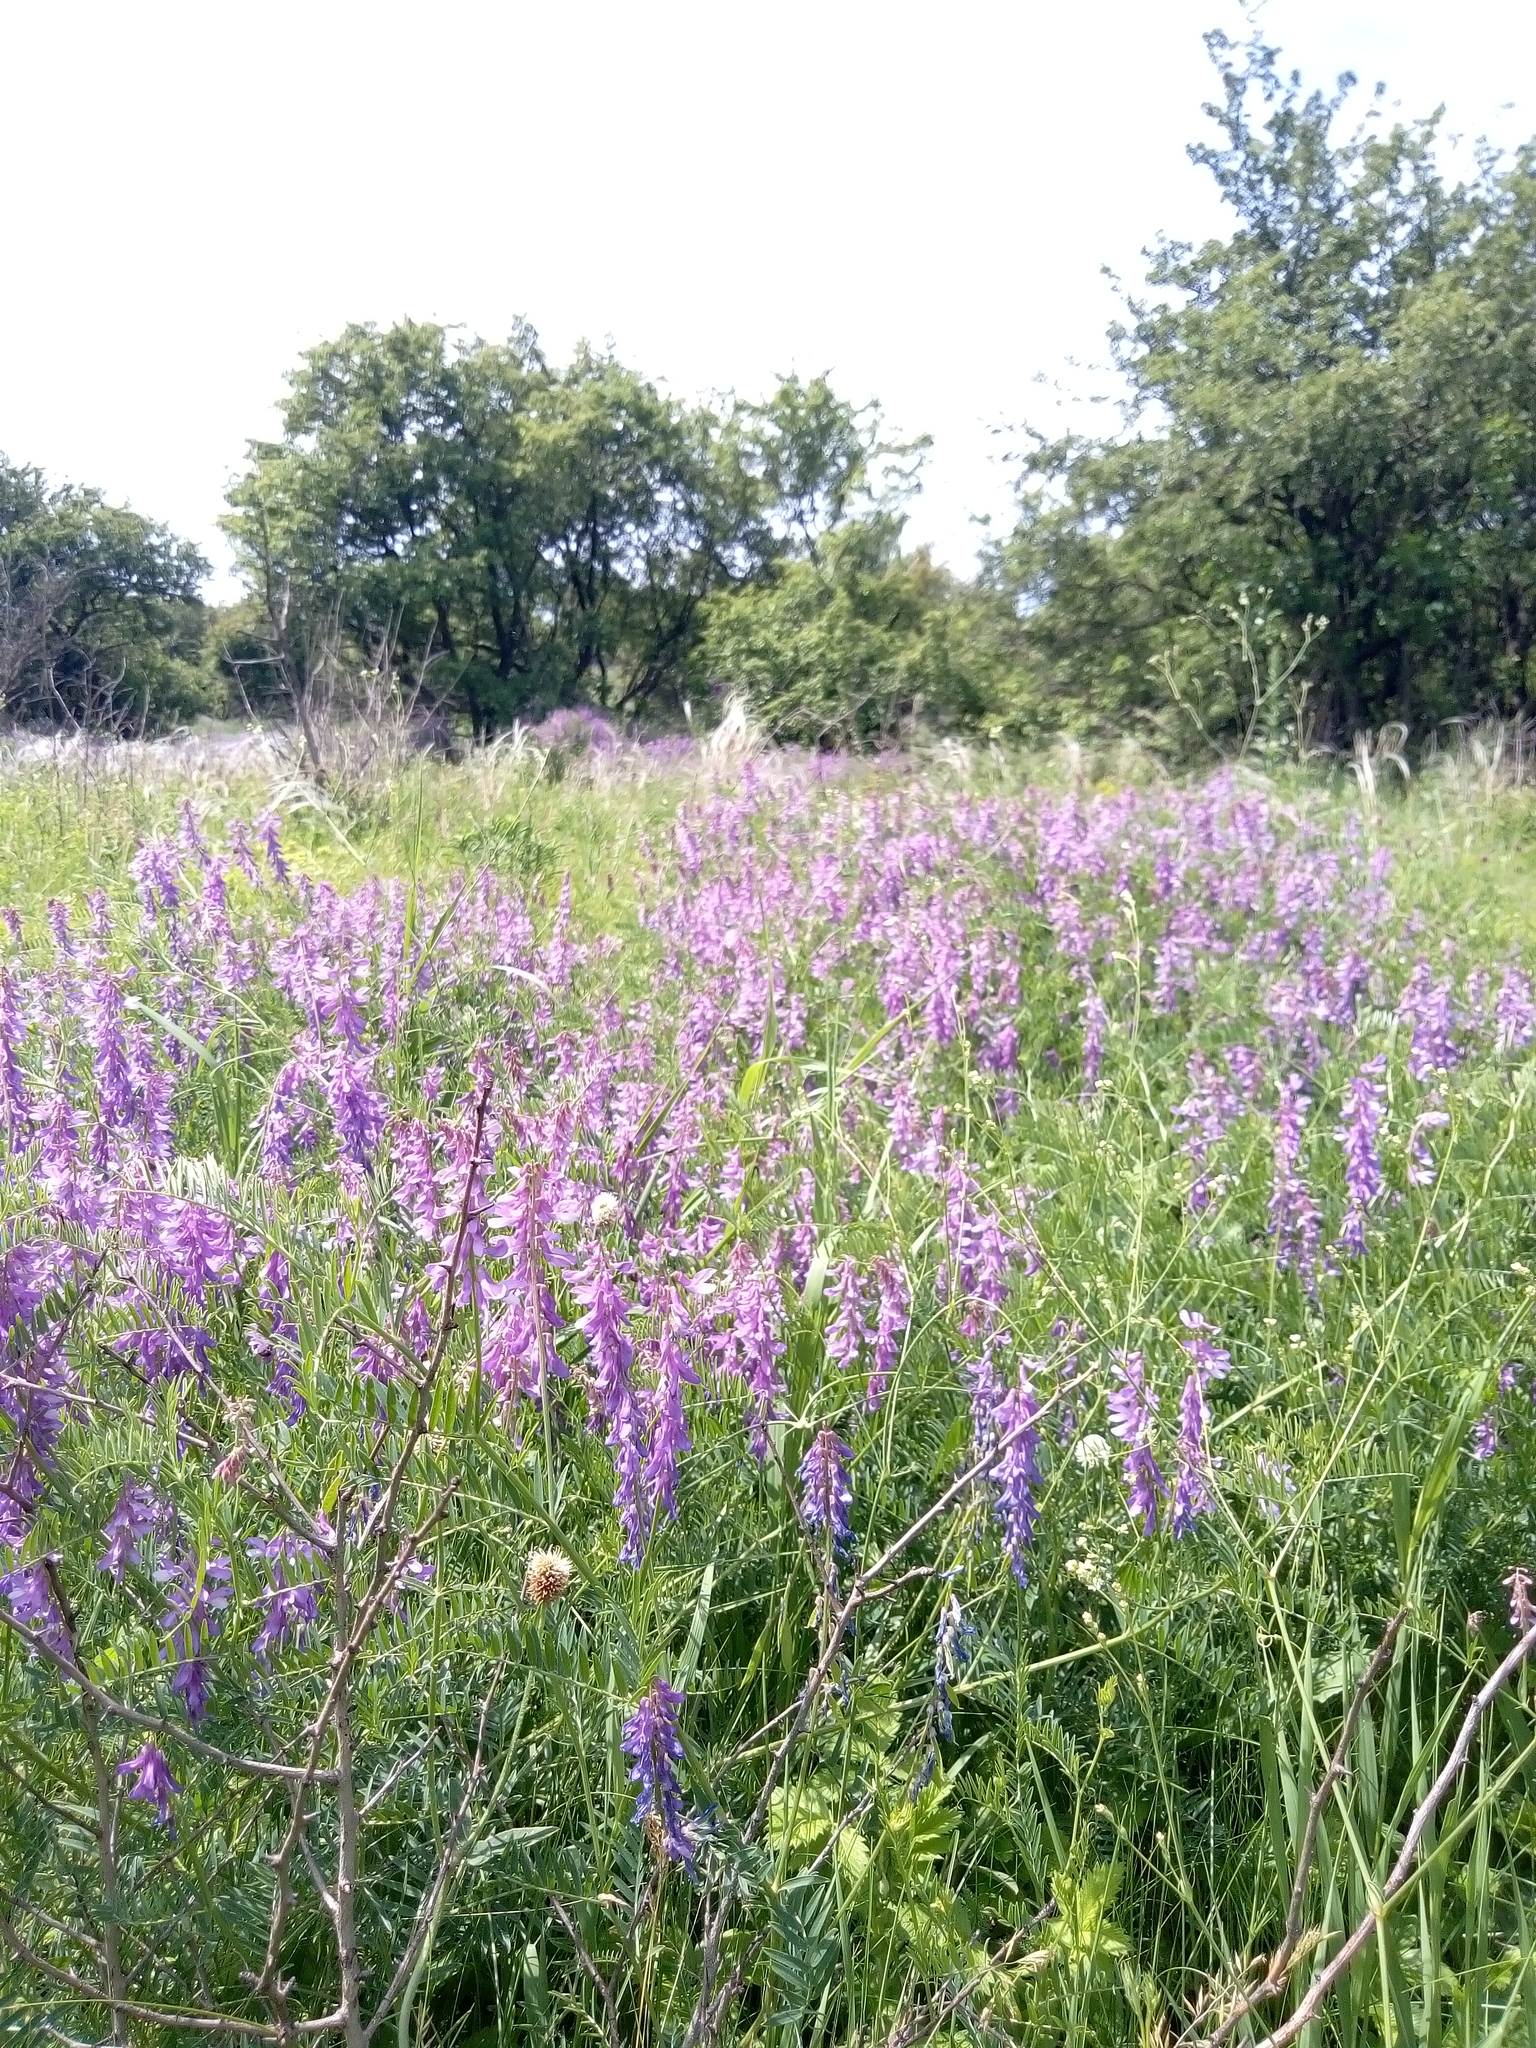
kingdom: Plantae
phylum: Tracheophyta
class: Magnoliopsida
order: Fabales
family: Fabaceae
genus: Vicia
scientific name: Vicia tenuifolia
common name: Fine-leaved vetch
